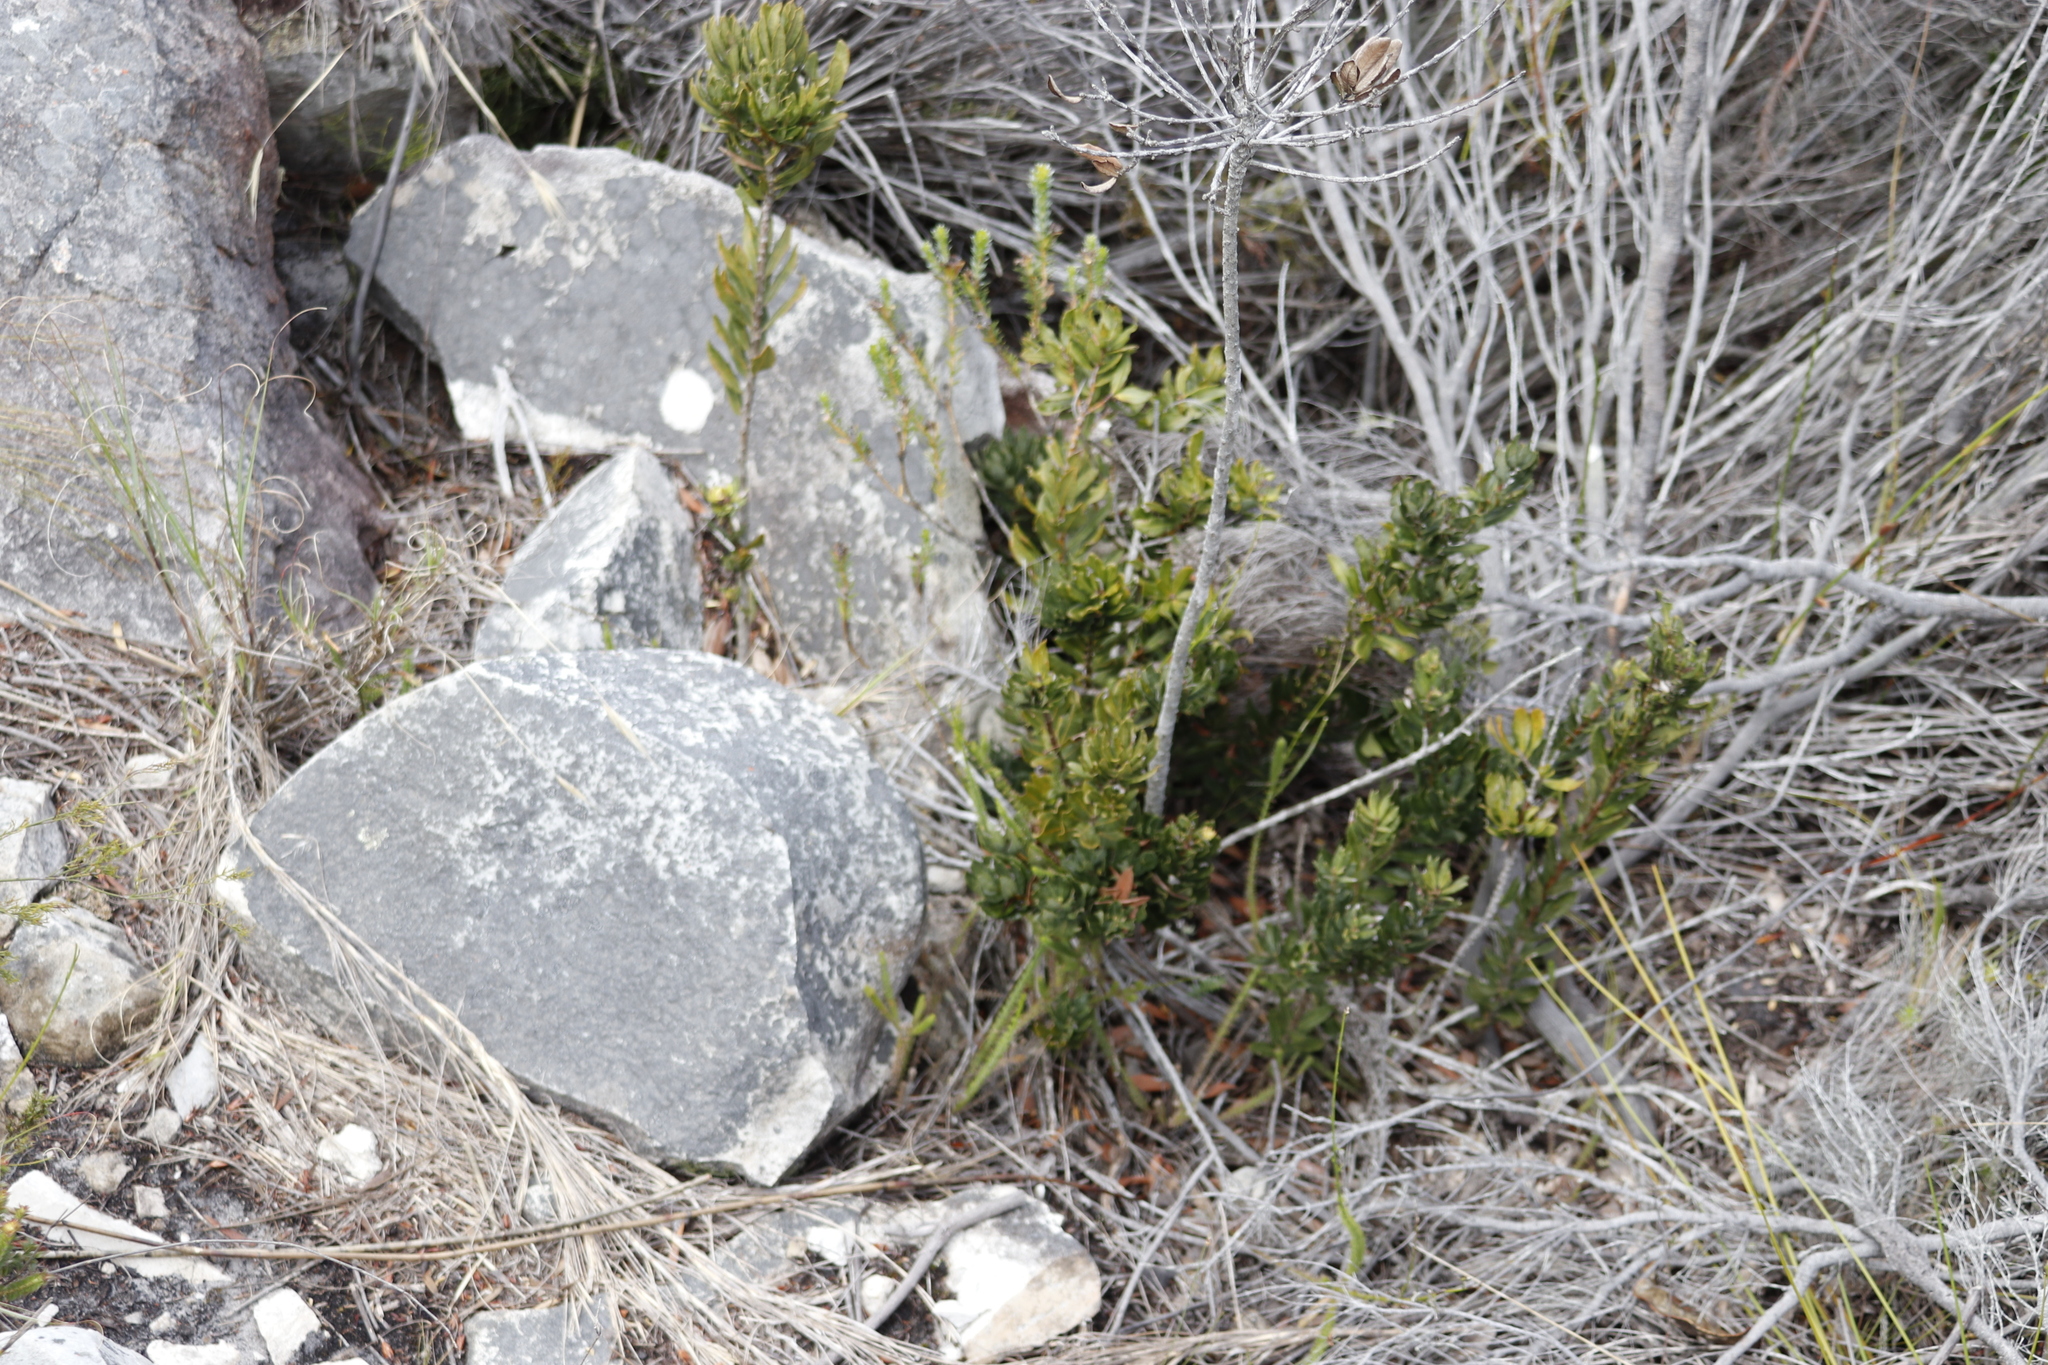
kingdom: Plantae
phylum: Tracheophyta
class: Magnoliopsida
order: Fagales
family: Myricaceae
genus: Morella
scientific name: Morella humilis
